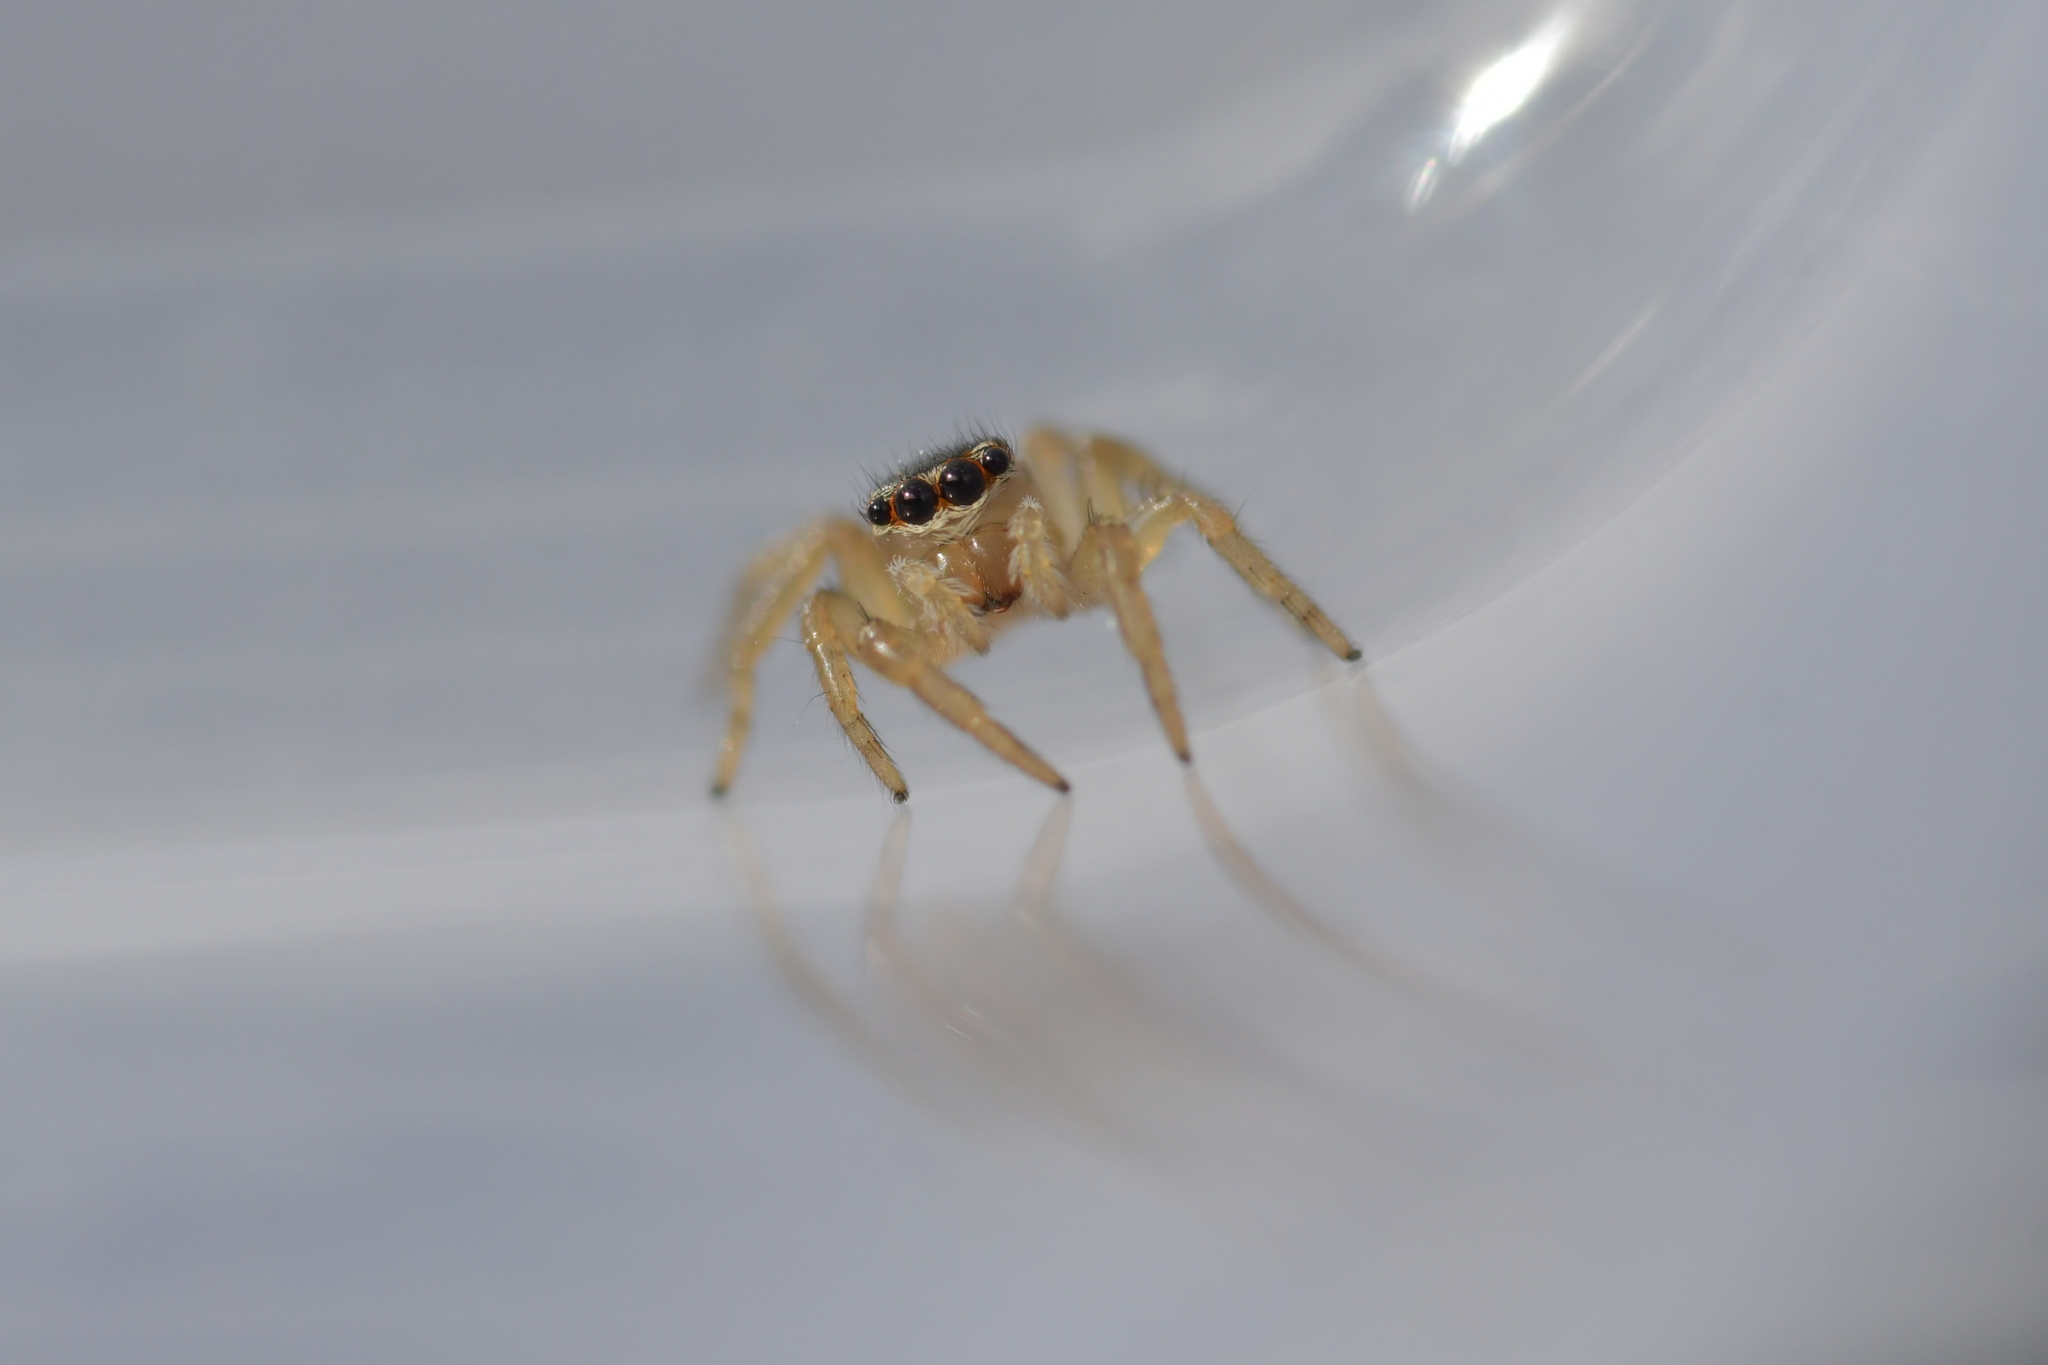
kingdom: Animalia
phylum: Arthropoda
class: Arachnida
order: Araneae
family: Salticidae
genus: Maratus
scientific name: Maratus griseus
